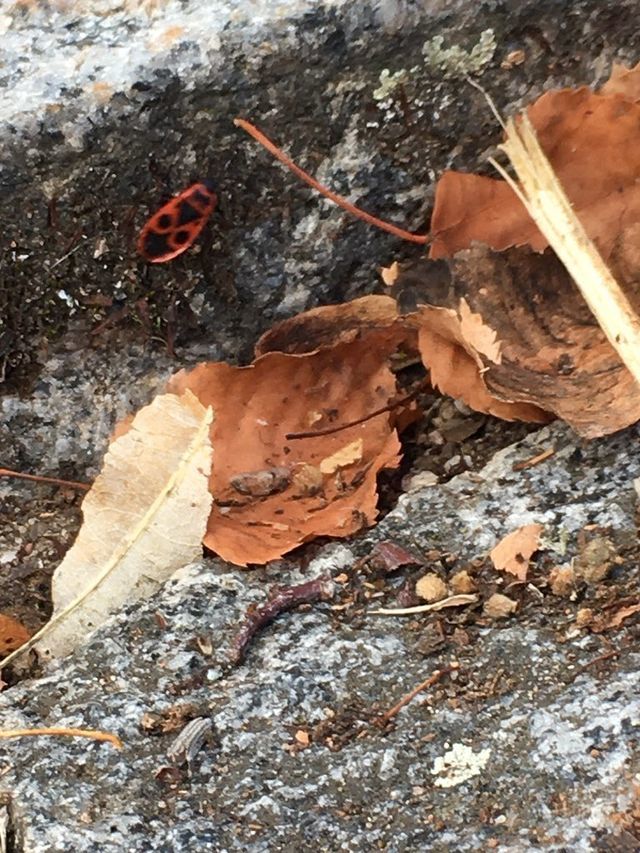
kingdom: Animalia
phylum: Arthropoda
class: Insecta
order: Hemiptera
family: Pyrrhocoridae
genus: Pyrrhocoris
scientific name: Pyrrhocoris apterus
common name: Firebug
